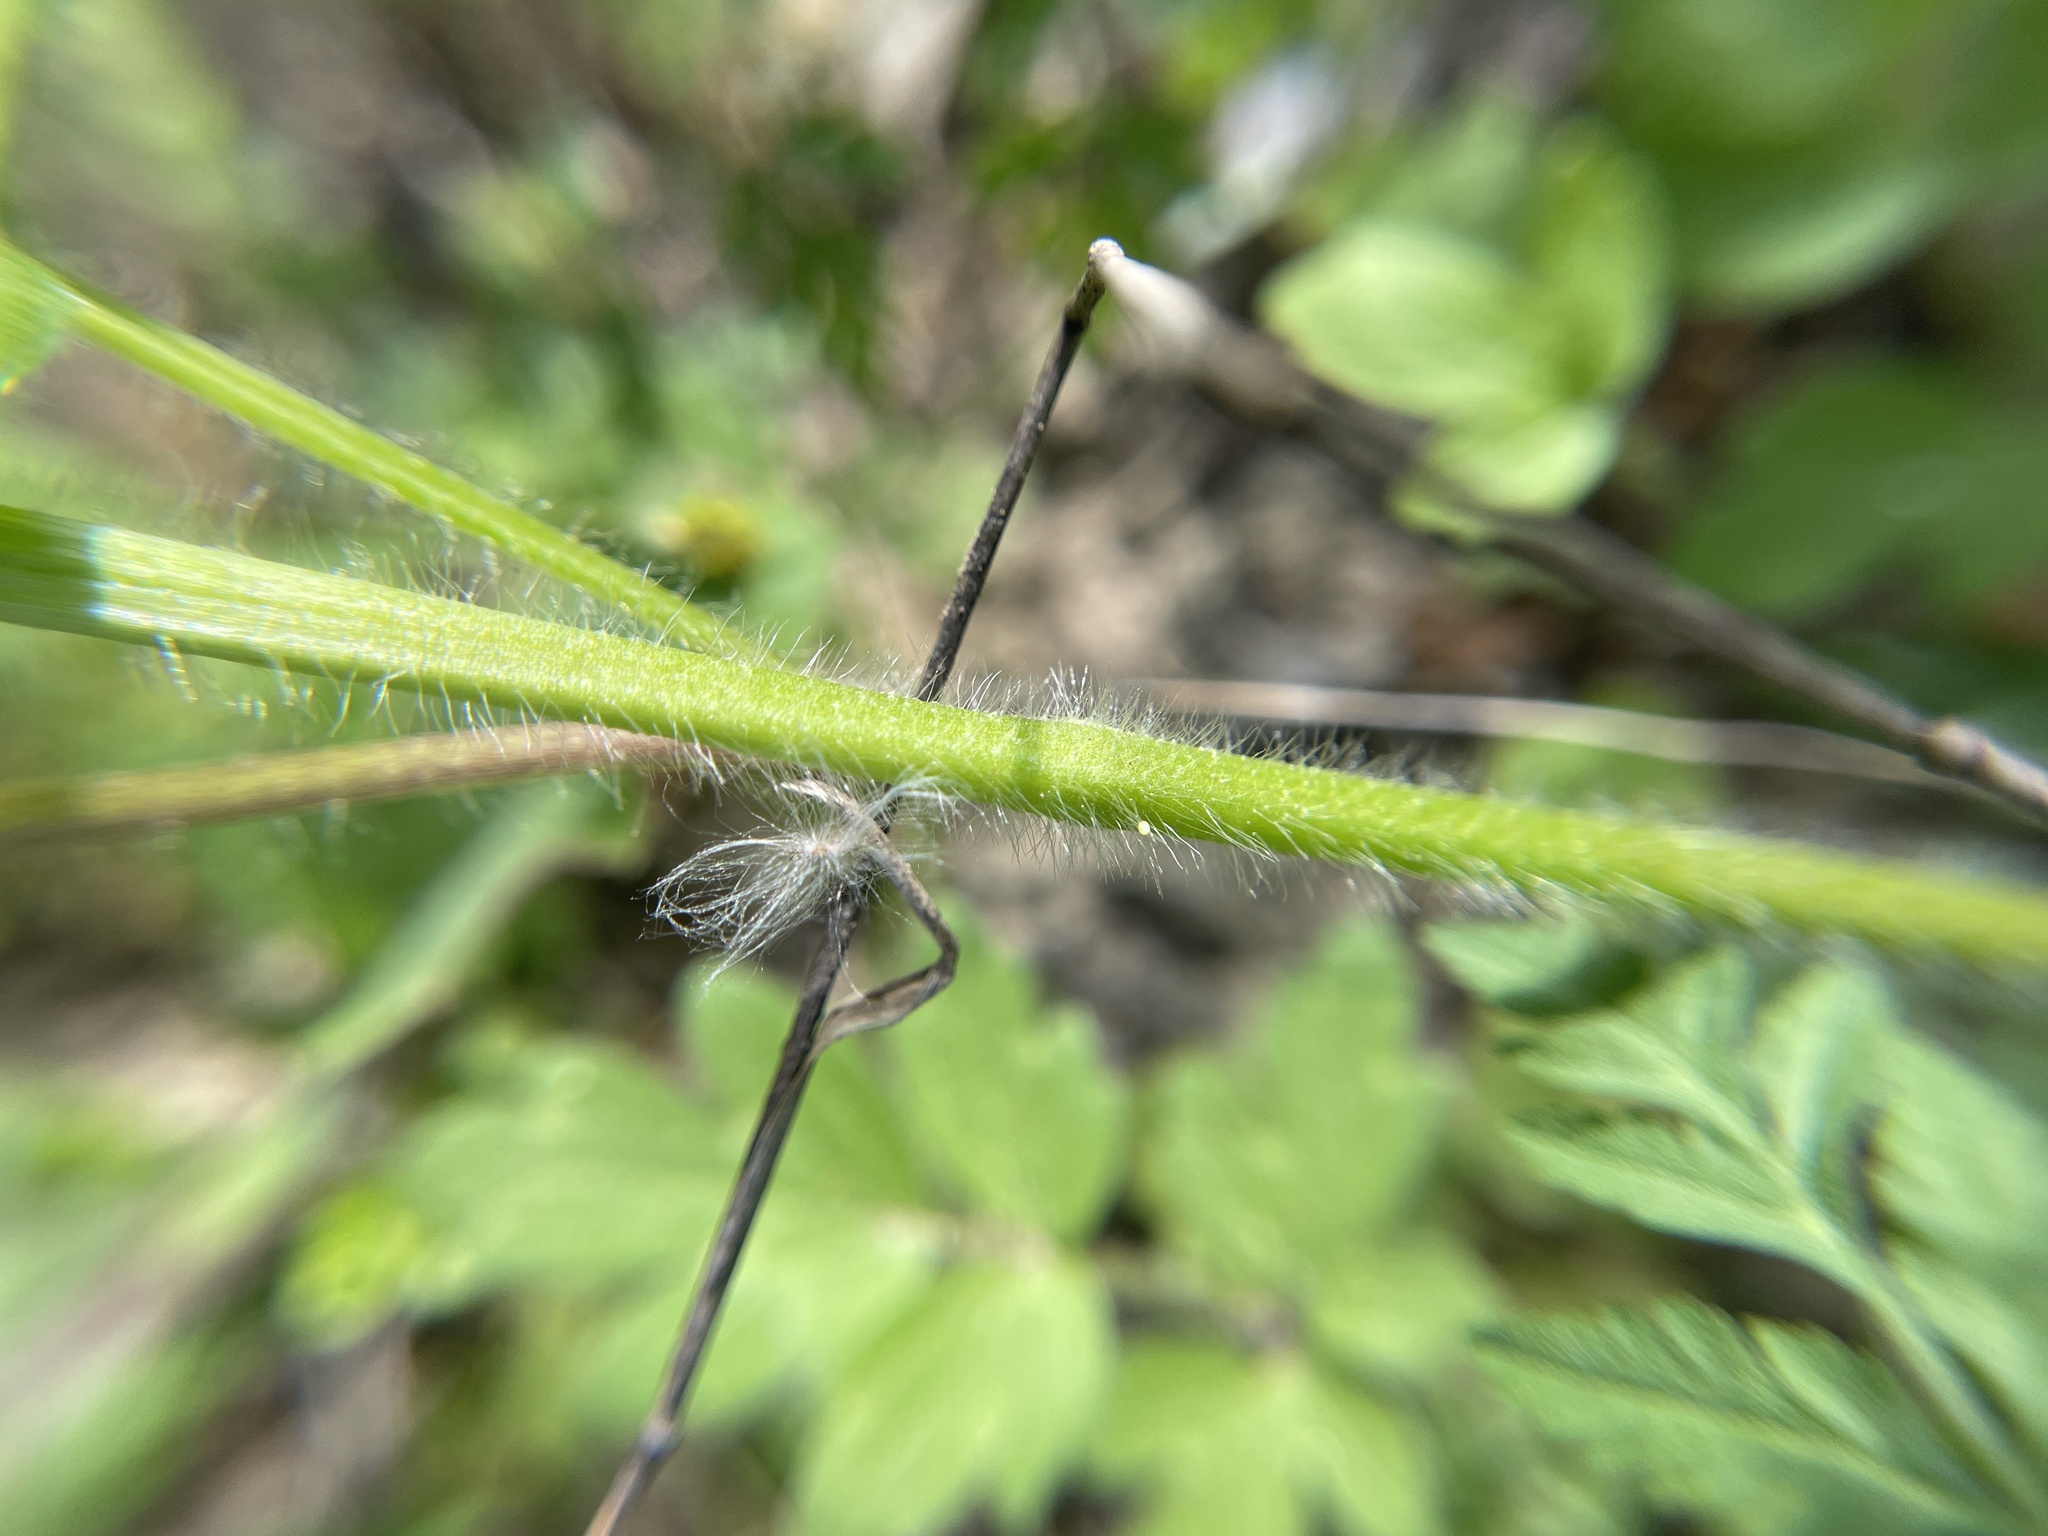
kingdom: Plantae
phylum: Tracheophyta
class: Magnoliopsida
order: Ranunculales
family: Ranunculaceae
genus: Ranunculus
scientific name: Ranunculus macranthus
